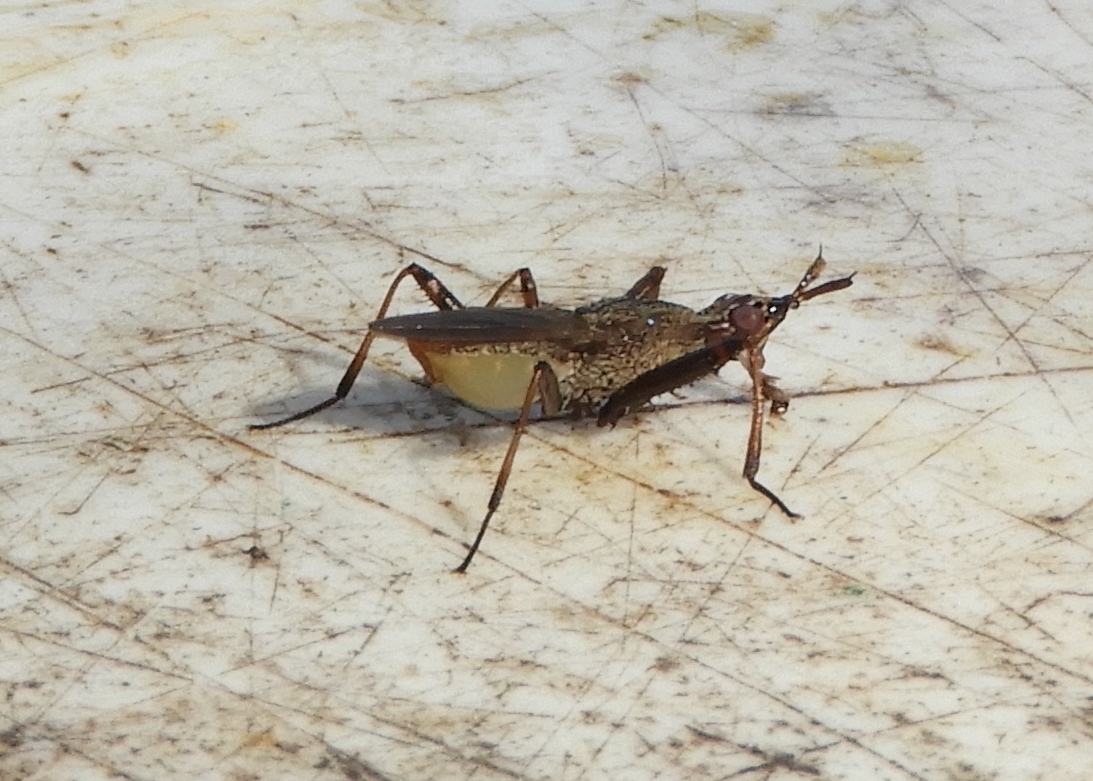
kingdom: Animalia
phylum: Arthropoda
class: Insecta
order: Diptera
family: Neriidae
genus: Odontoloxozus
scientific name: Odontoloxozus
